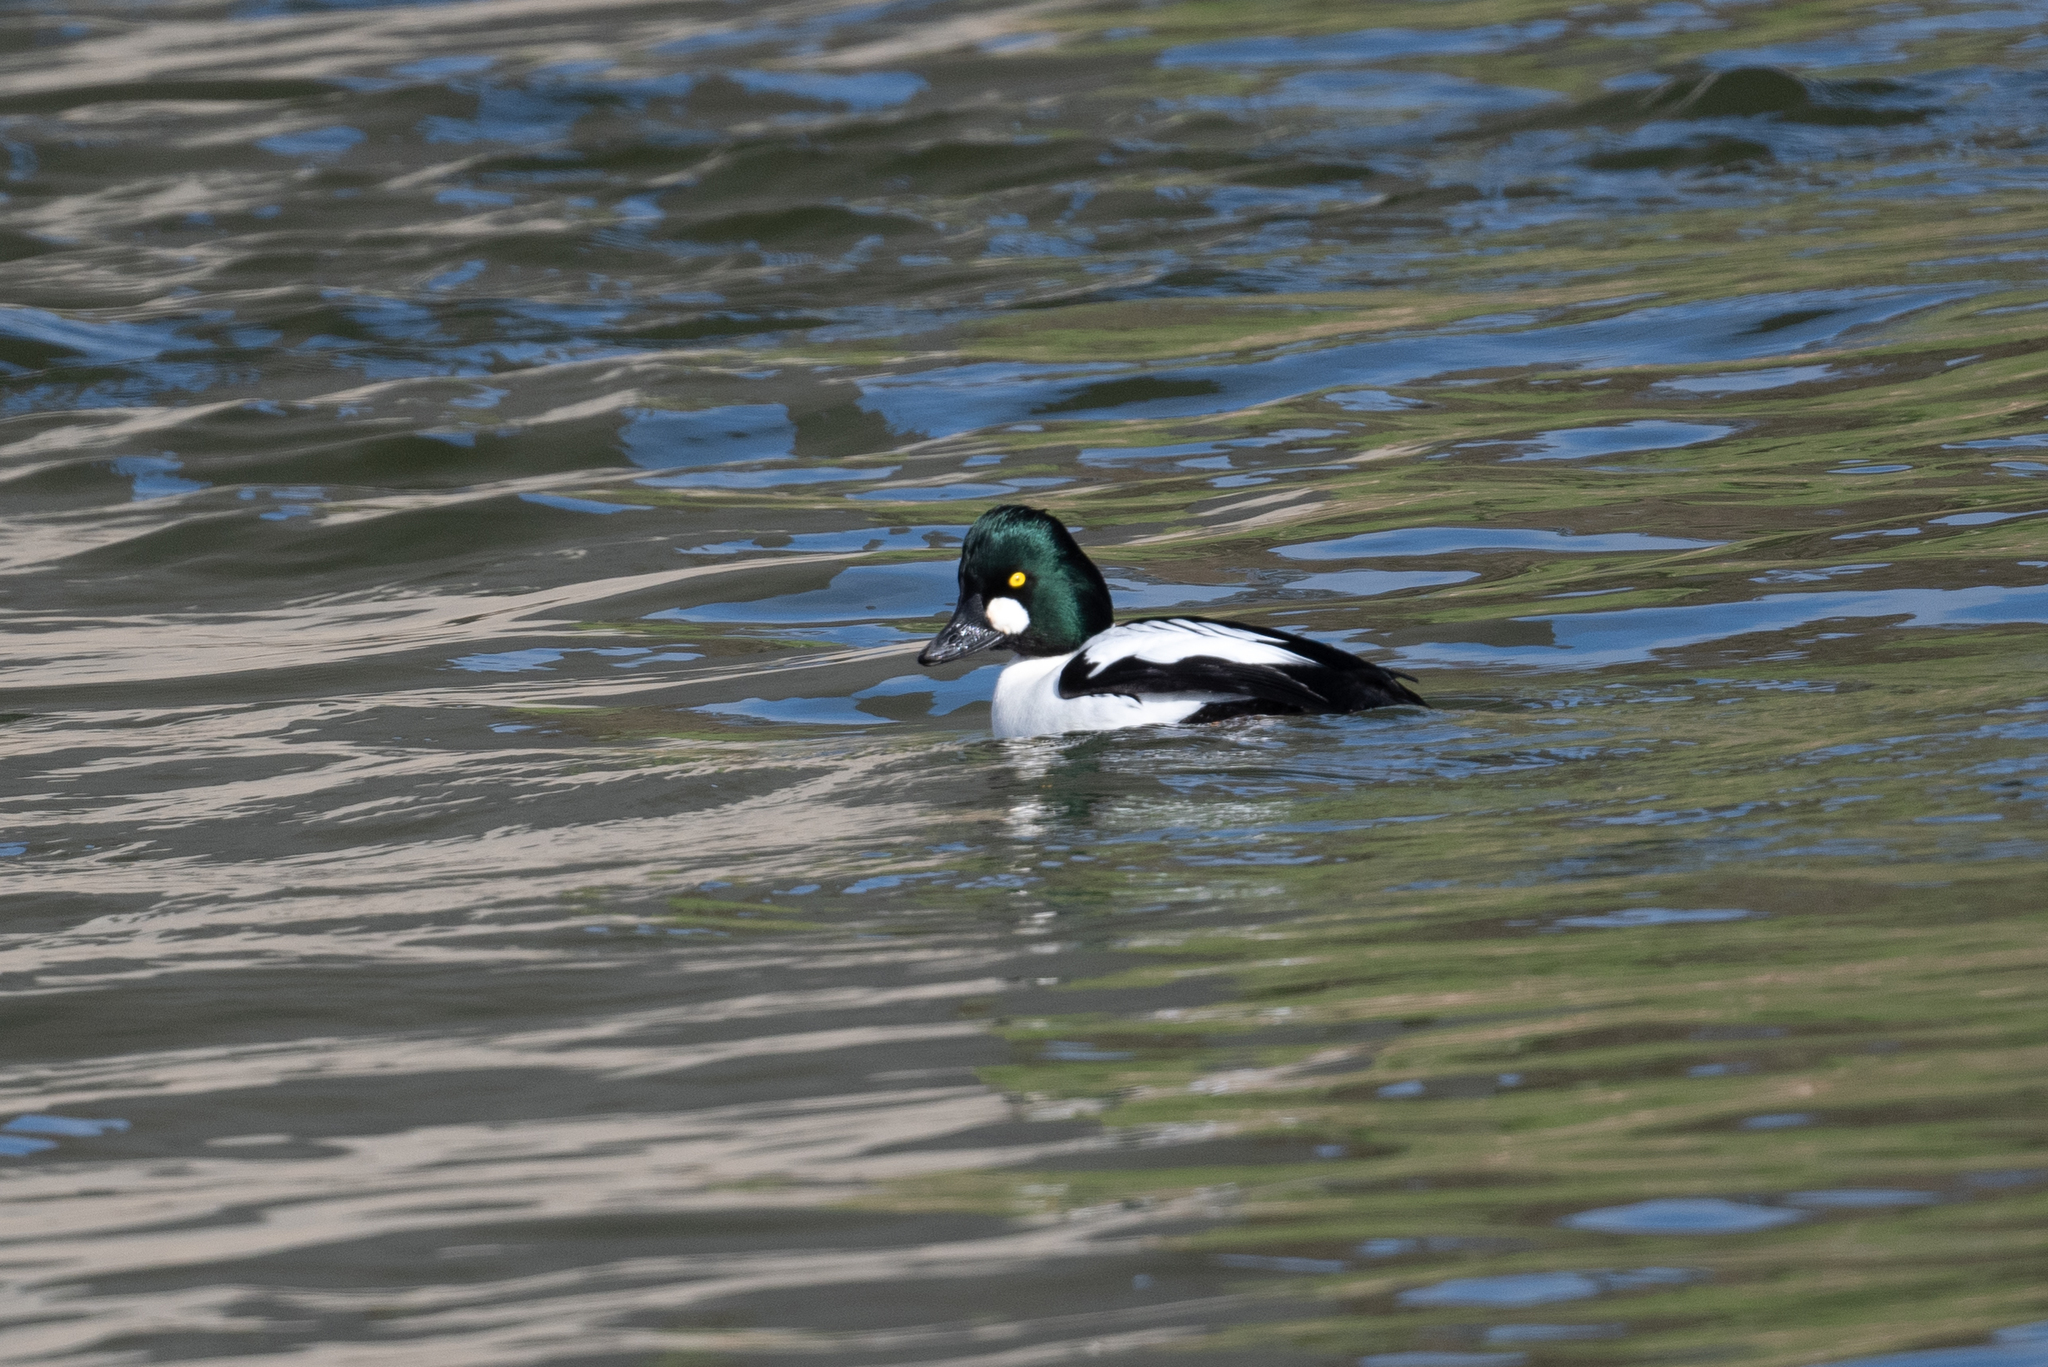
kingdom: Animalia
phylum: Chordata
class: Aves
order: Anseriformes
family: Anatidae
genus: Bucephala
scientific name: Bucephala clangula
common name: Common goldeneye
